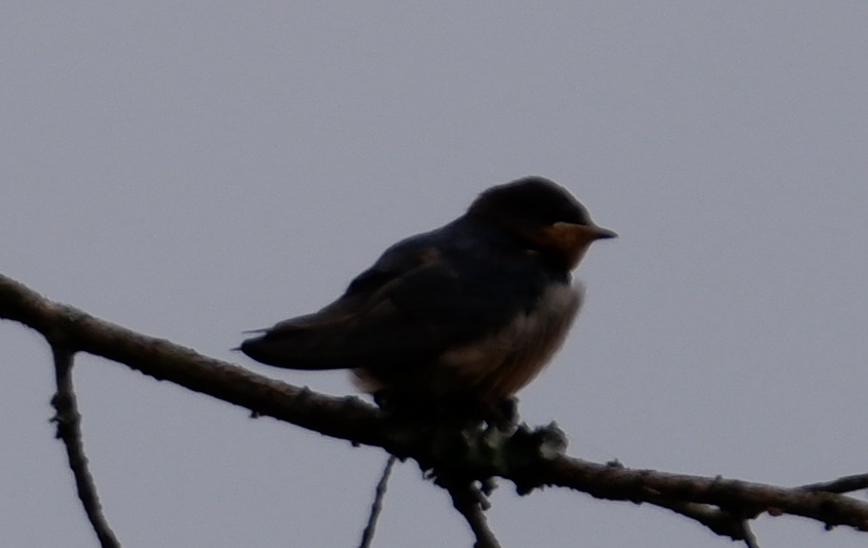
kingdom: Animalia
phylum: Chordata
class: Aves
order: Passeriformes
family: Hirundinidae
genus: Hirundo
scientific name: Hirundo rustica
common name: Barn swallow
